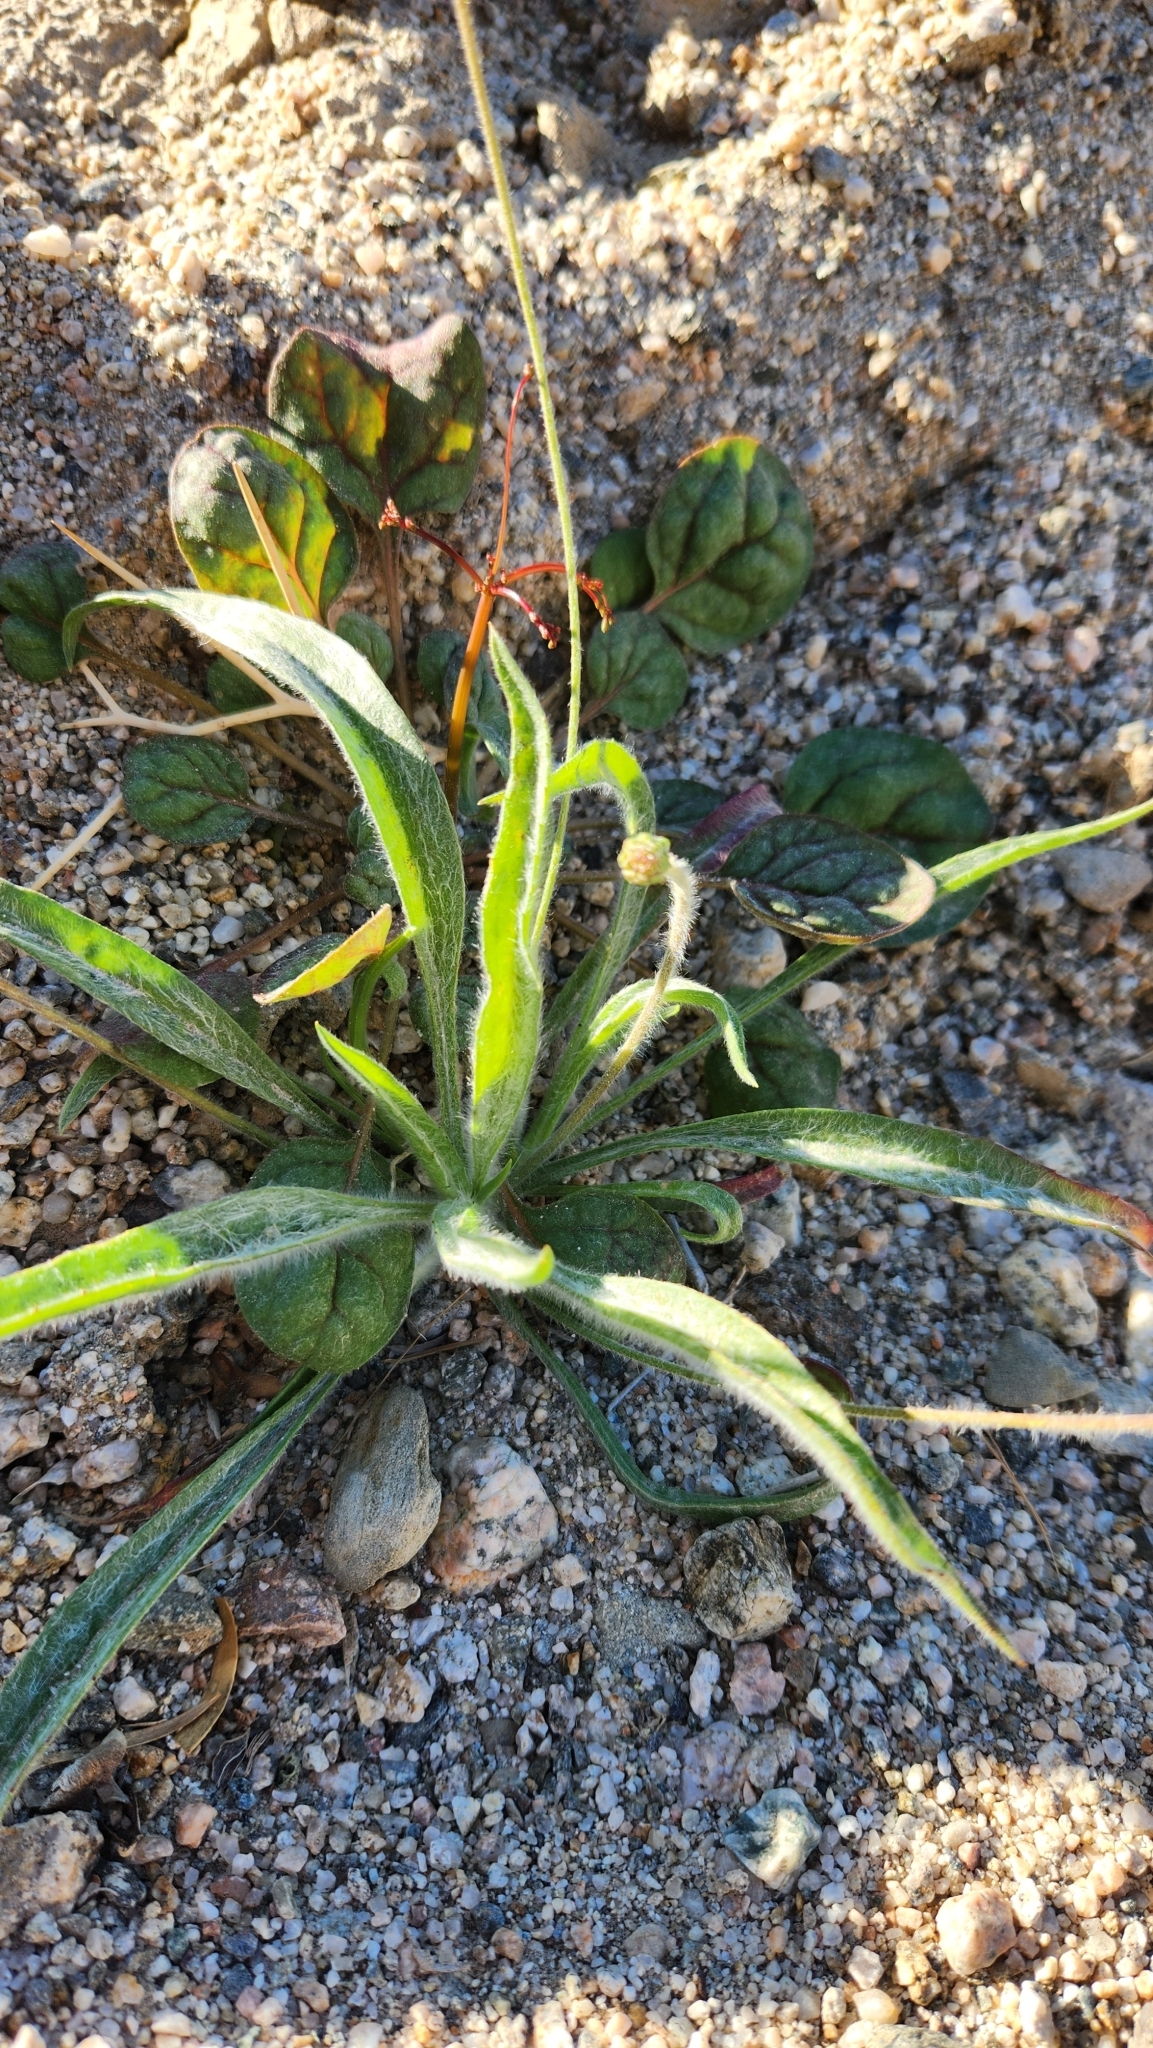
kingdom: Plantae
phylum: Tracheophyta
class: Magnoliopsida
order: Lamiales
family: Plantaginaceae
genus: Plantago
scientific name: Plantago ovata
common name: Blond plantain
